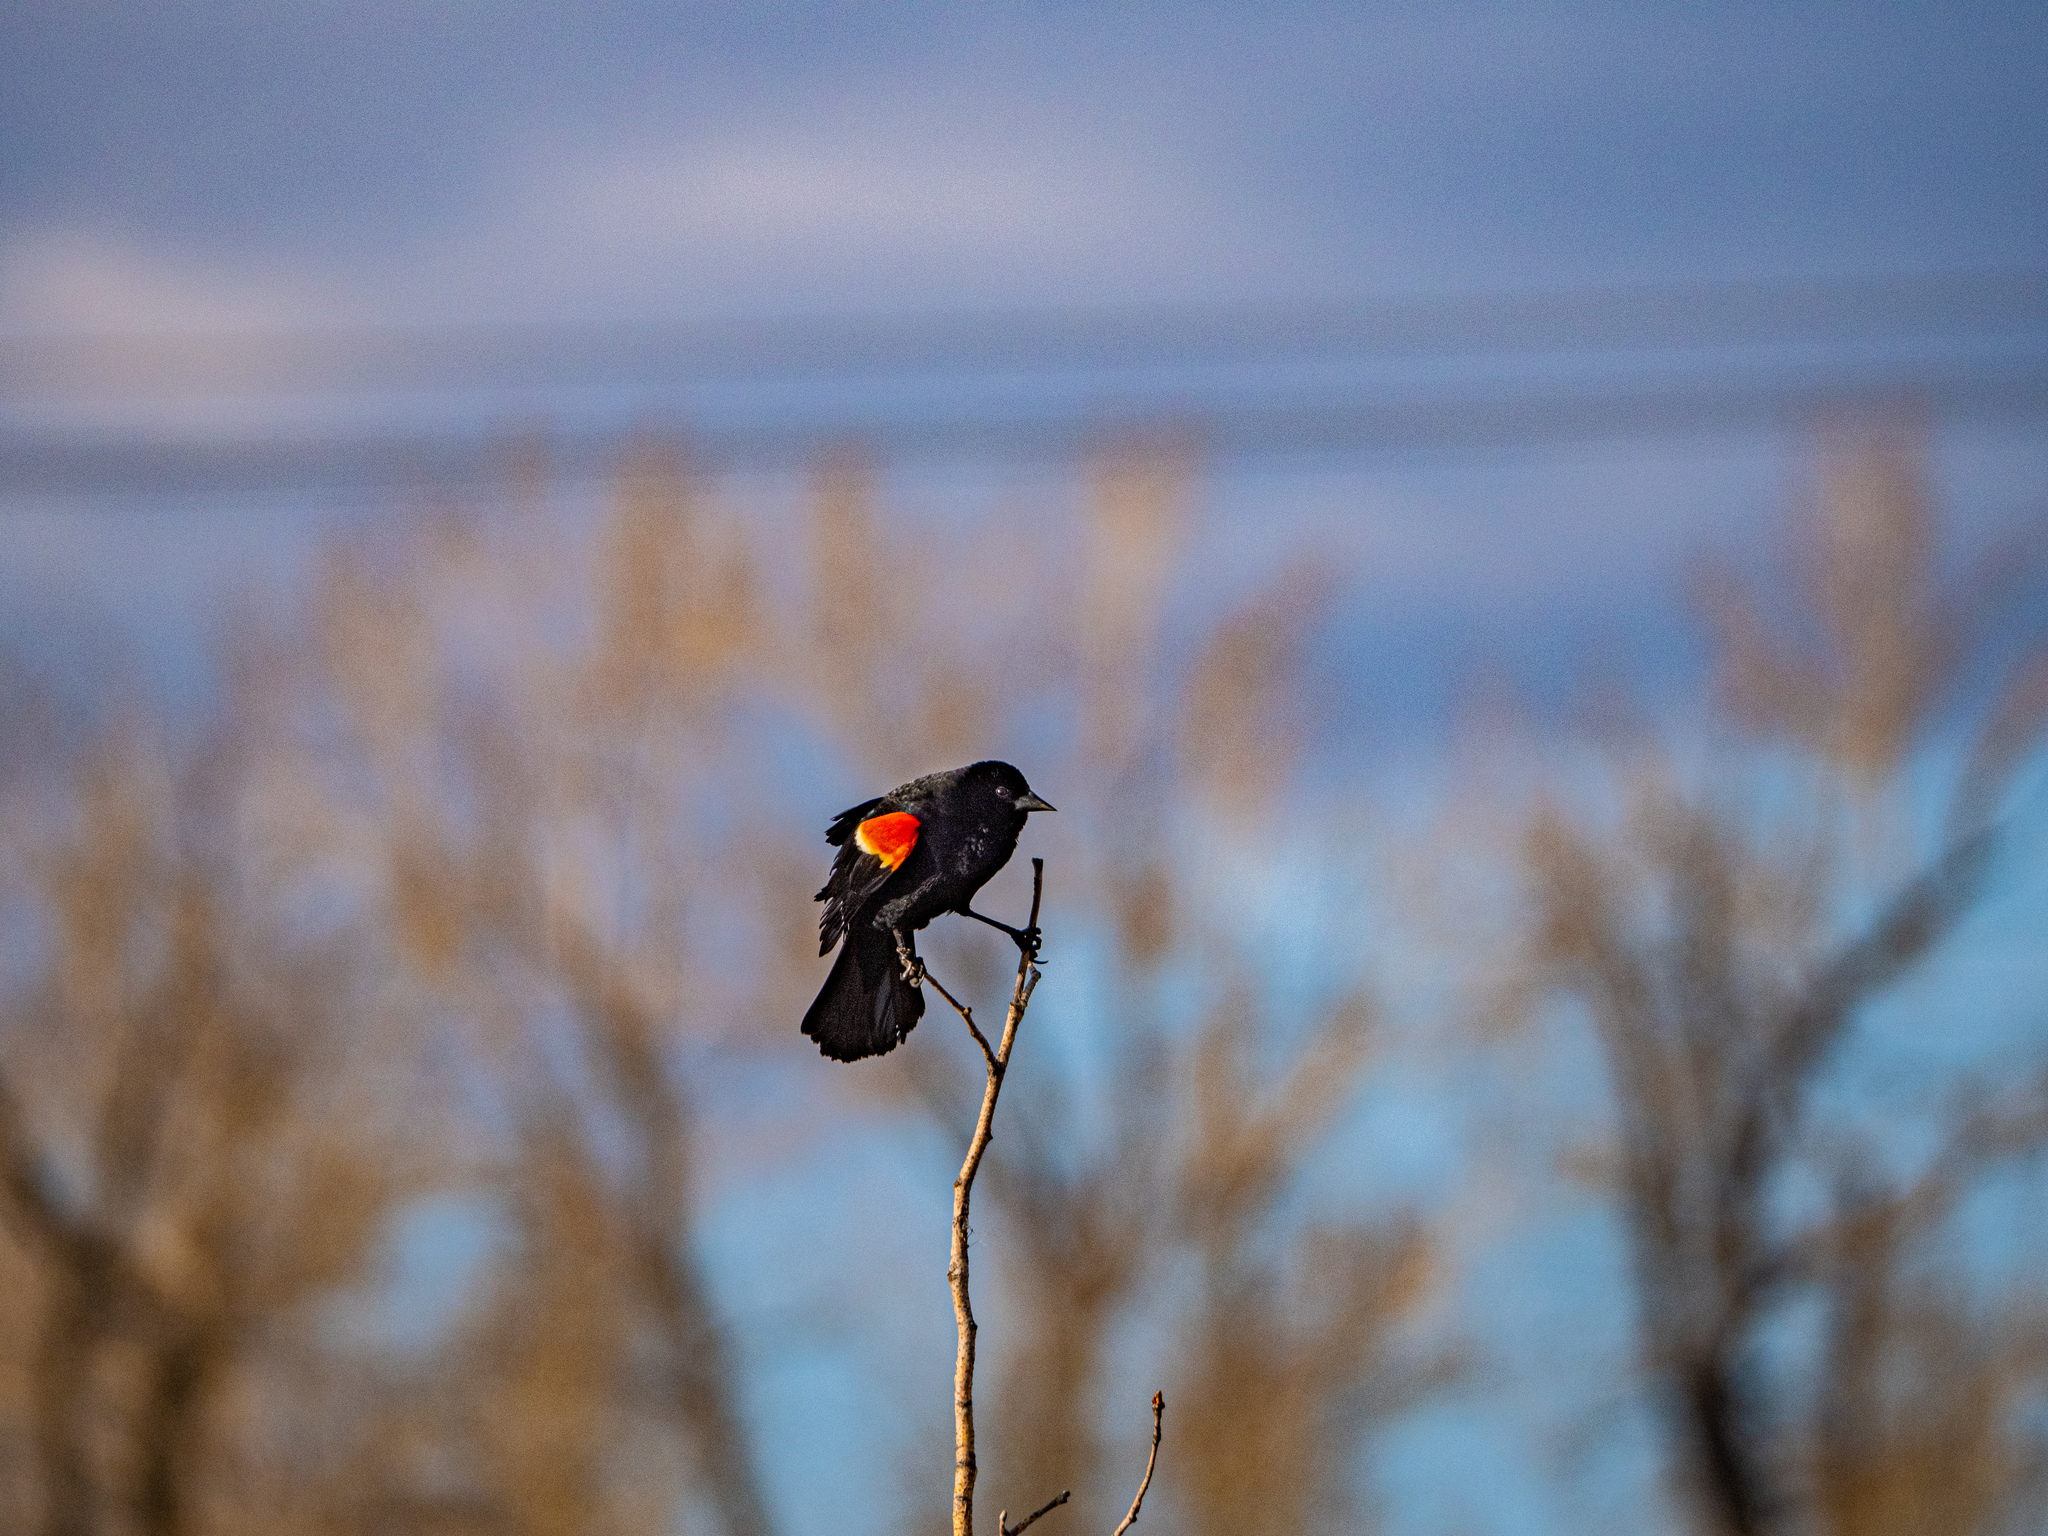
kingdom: Animalia
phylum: Chordata
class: Aves
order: Passeriformes
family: Icteridae
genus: Agelaius
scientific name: Agelaius phoeniceus
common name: Red-winged blackbird
